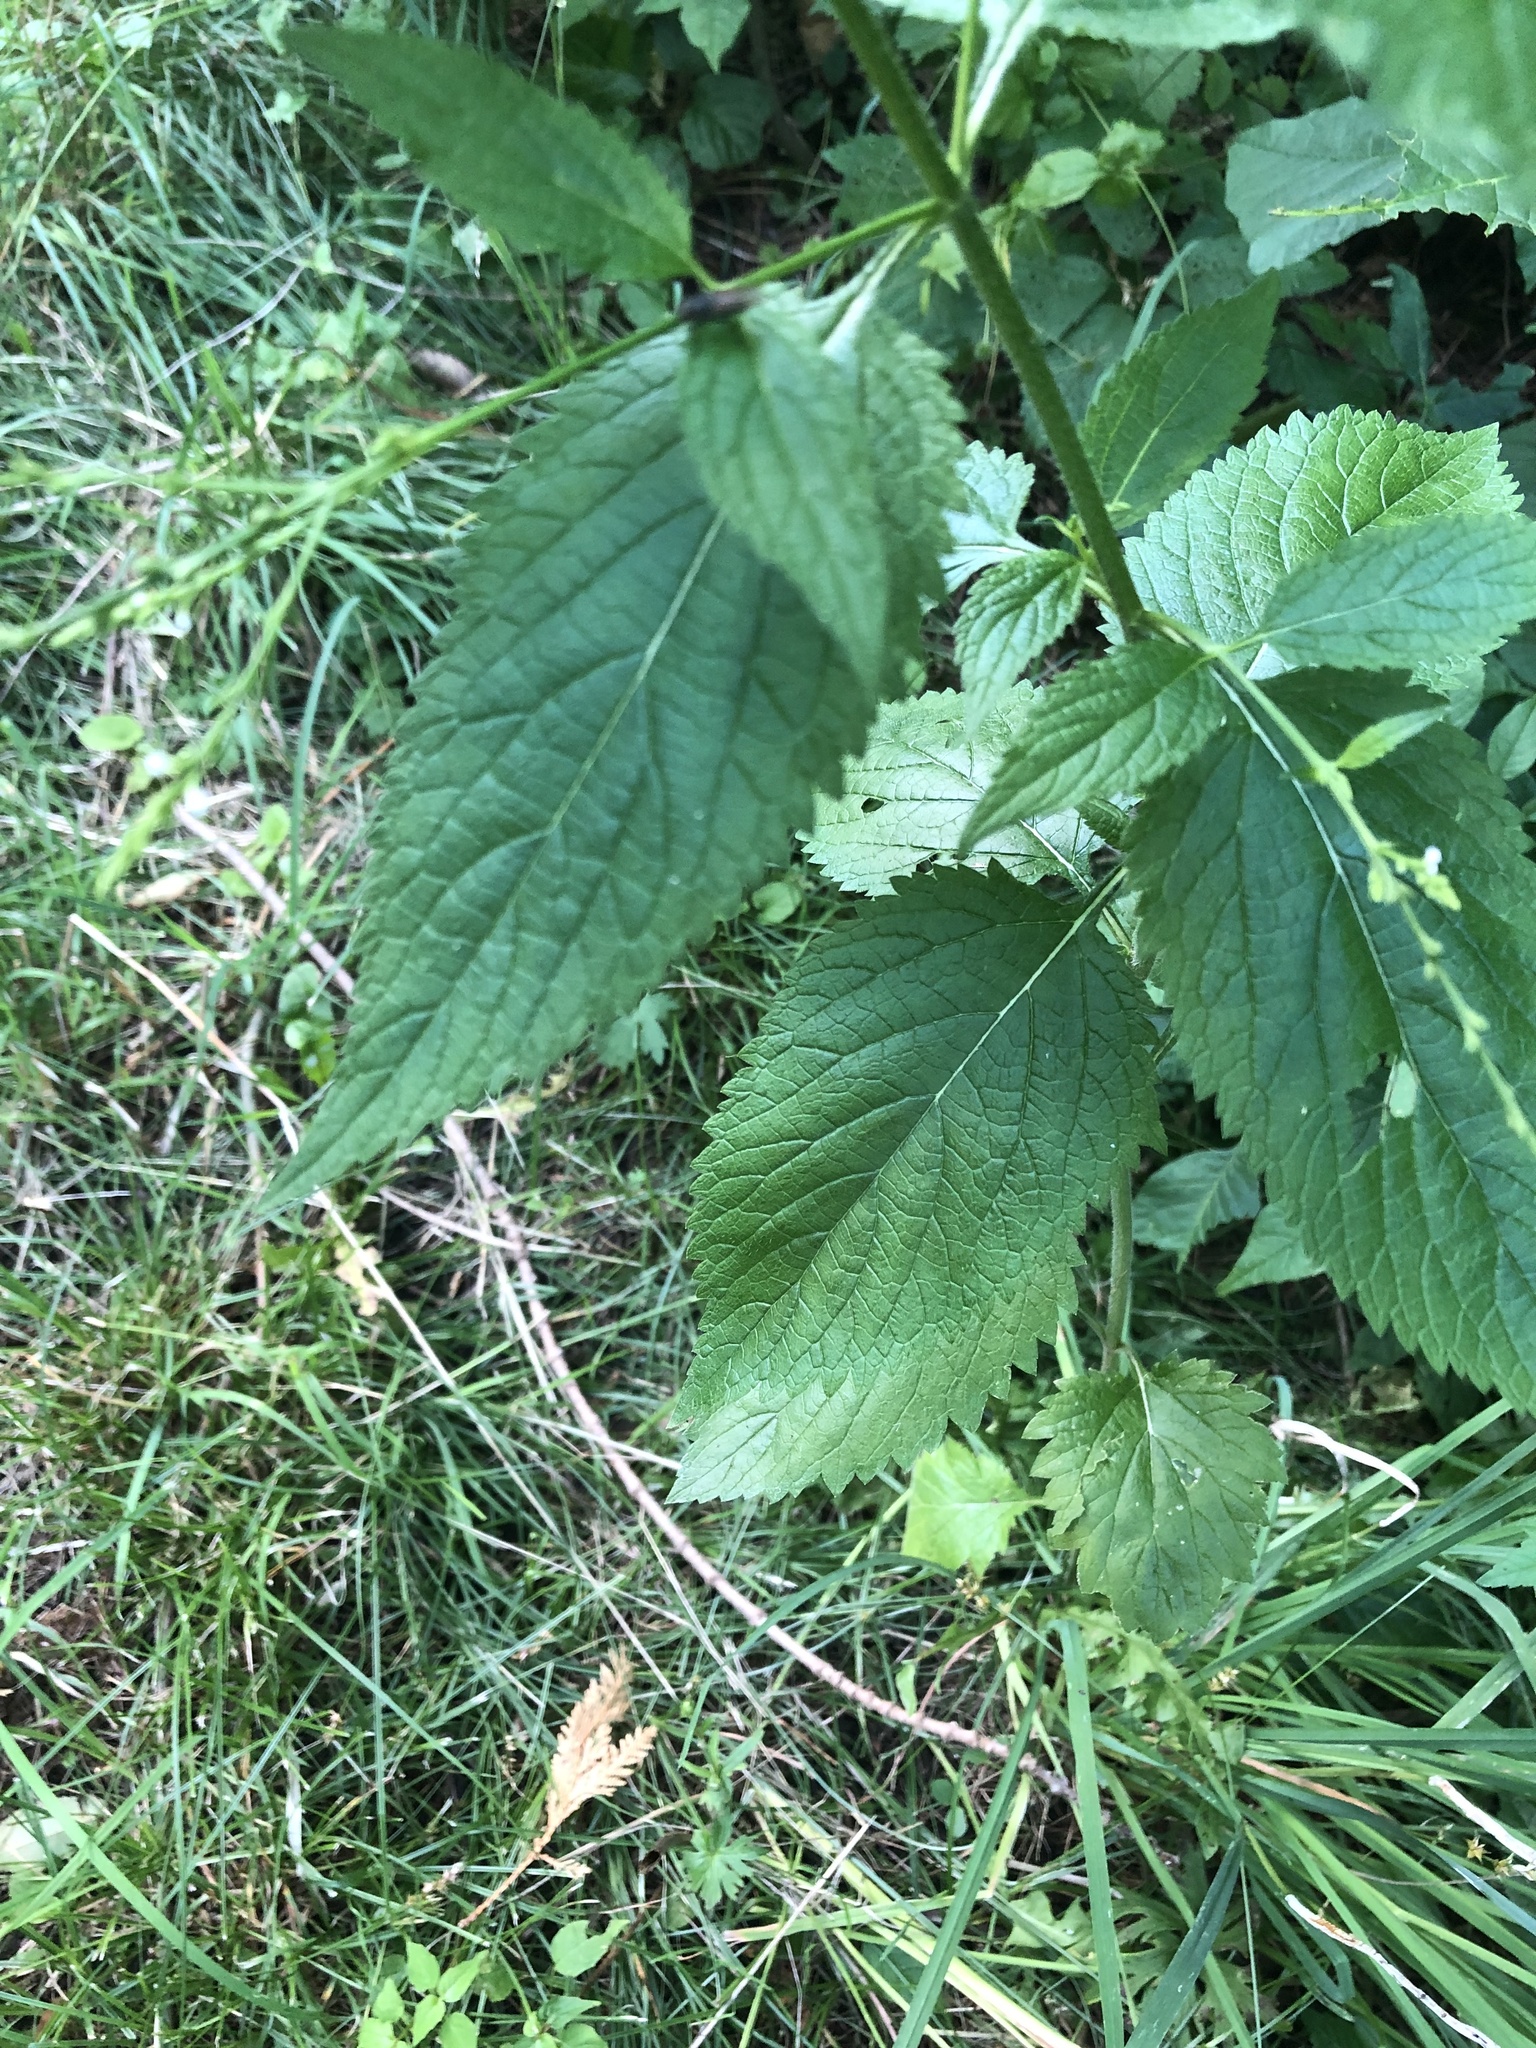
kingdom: Plantae
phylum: Tracheophyta
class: Magnoliopsida
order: Lamiales
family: Verbenaceae
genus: Verbena
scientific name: Verbena urticifolia
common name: Nettle-leaved vervain
